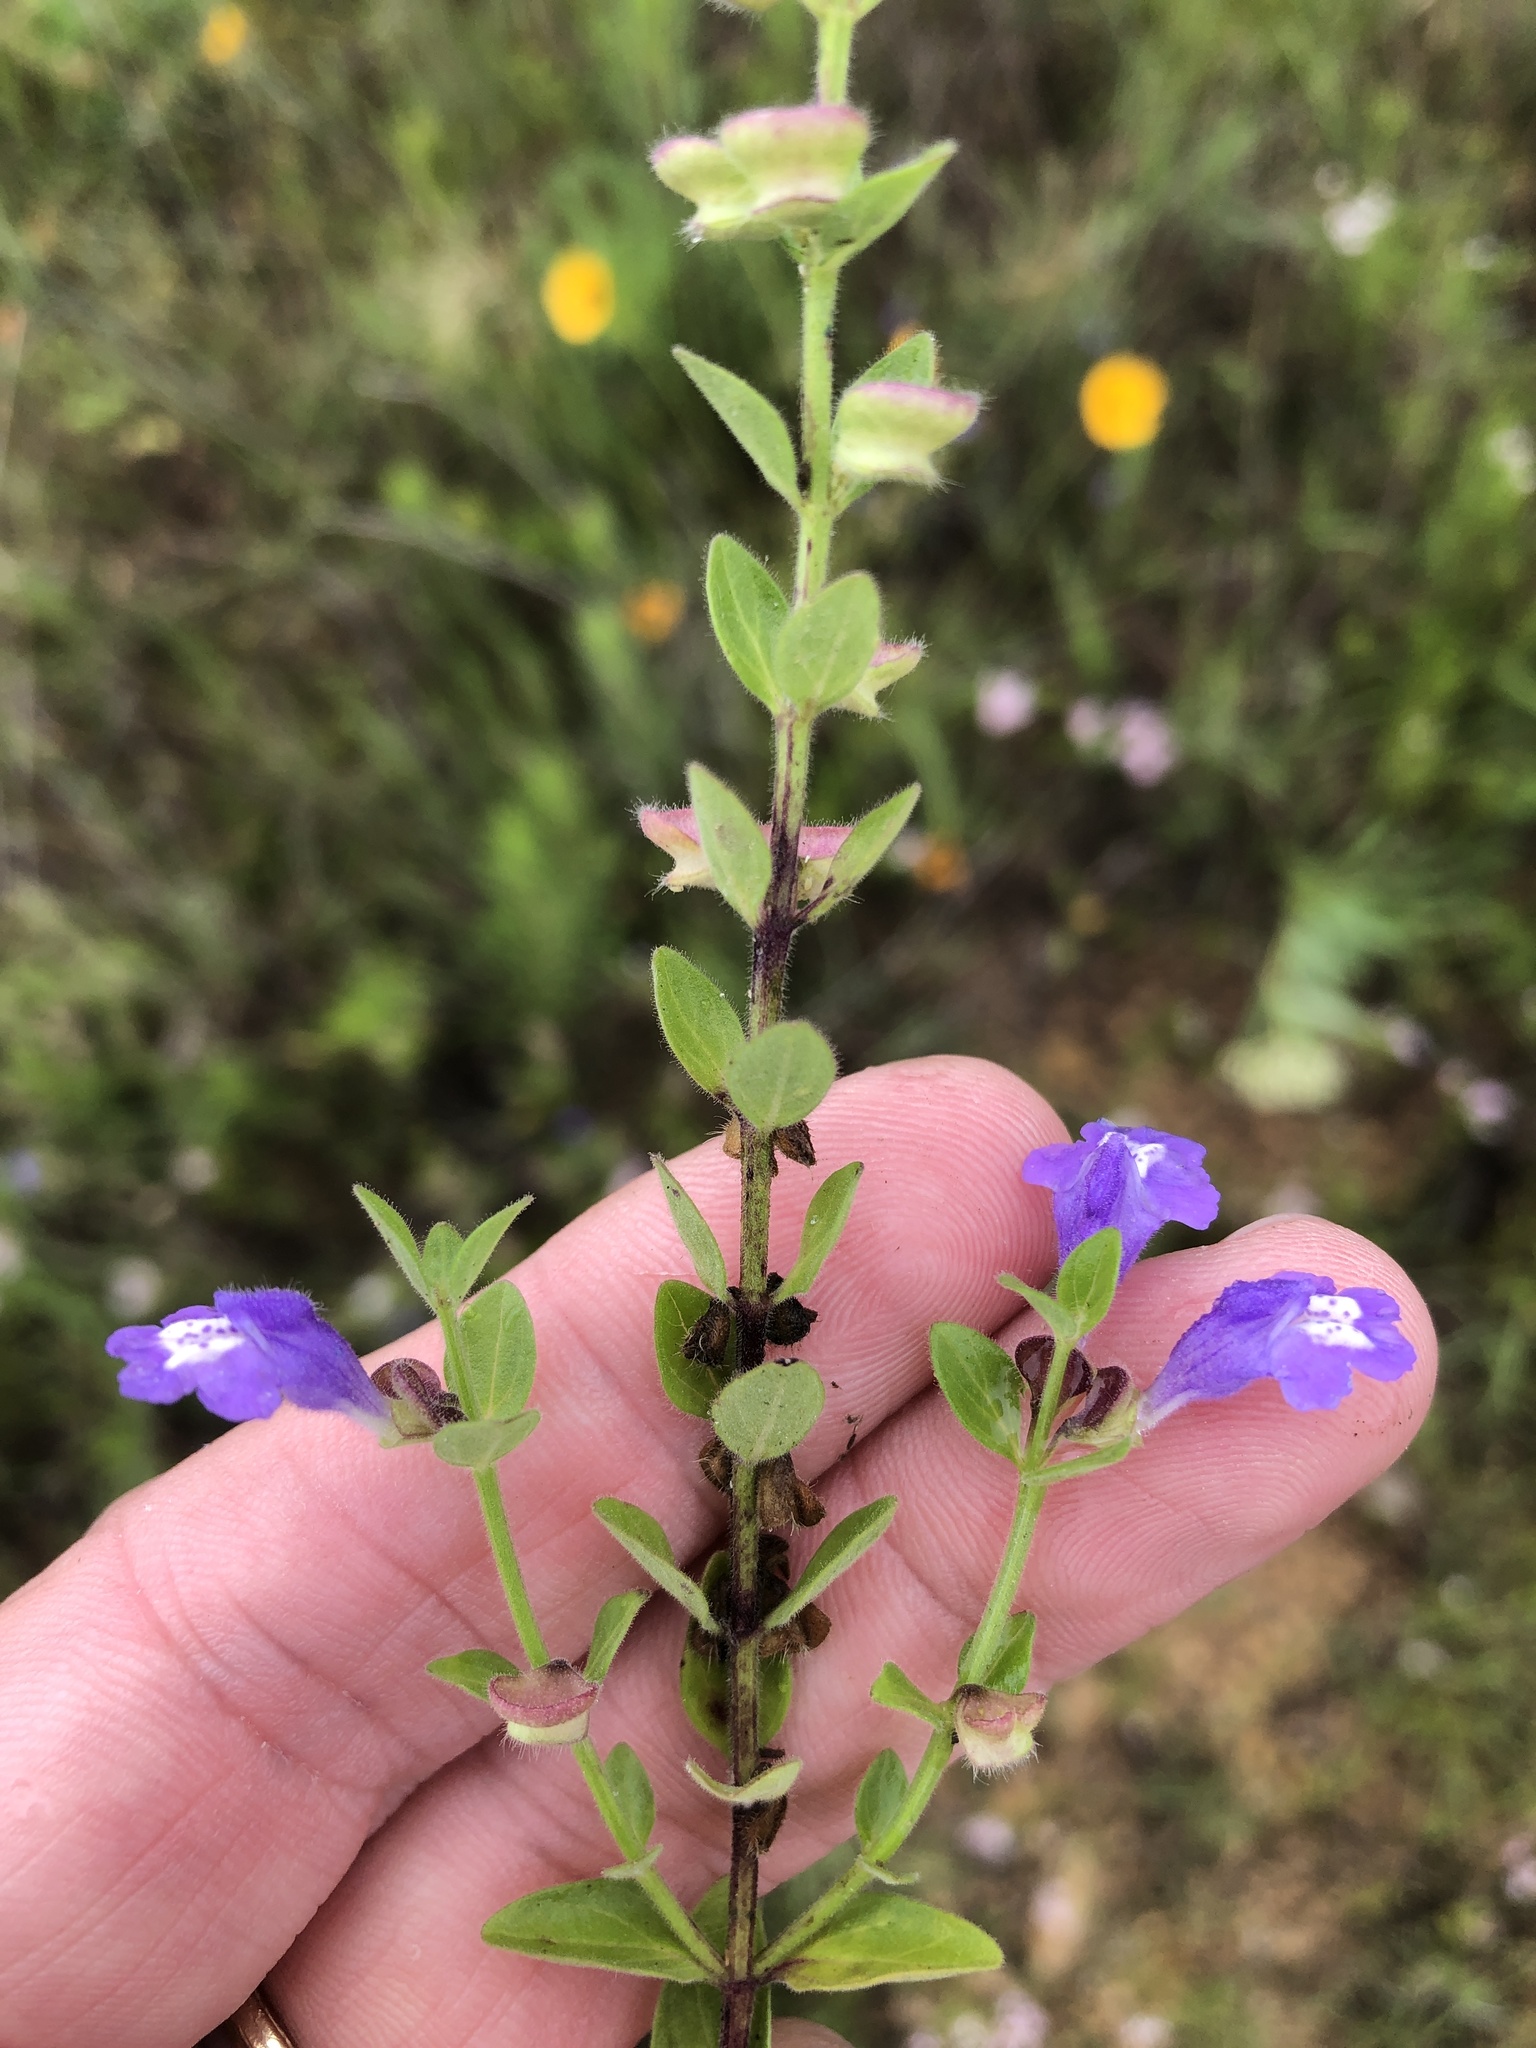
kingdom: Plantae
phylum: Tracheophyta
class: Magnoliopsida
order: Lamiales
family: Lamiaceae
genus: Scutellaria
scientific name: Scutellaria drummondii
